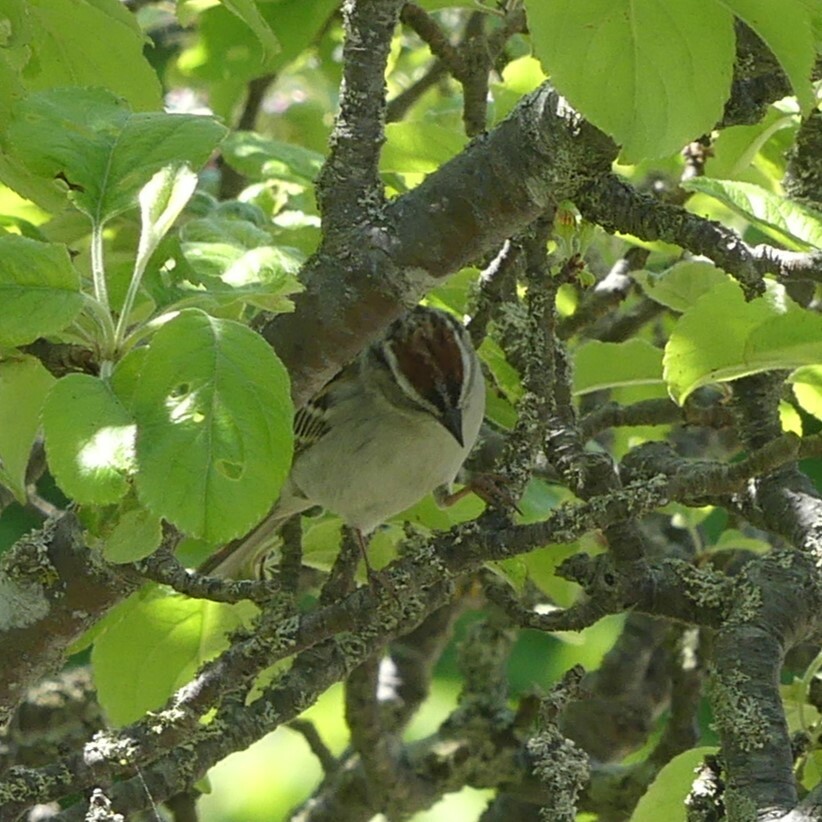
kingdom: Animalia
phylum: Chordata
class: Aves
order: Passeriformes
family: Passerellidae
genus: Spizella
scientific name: Spizella passerina
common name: Chipping sparrow
